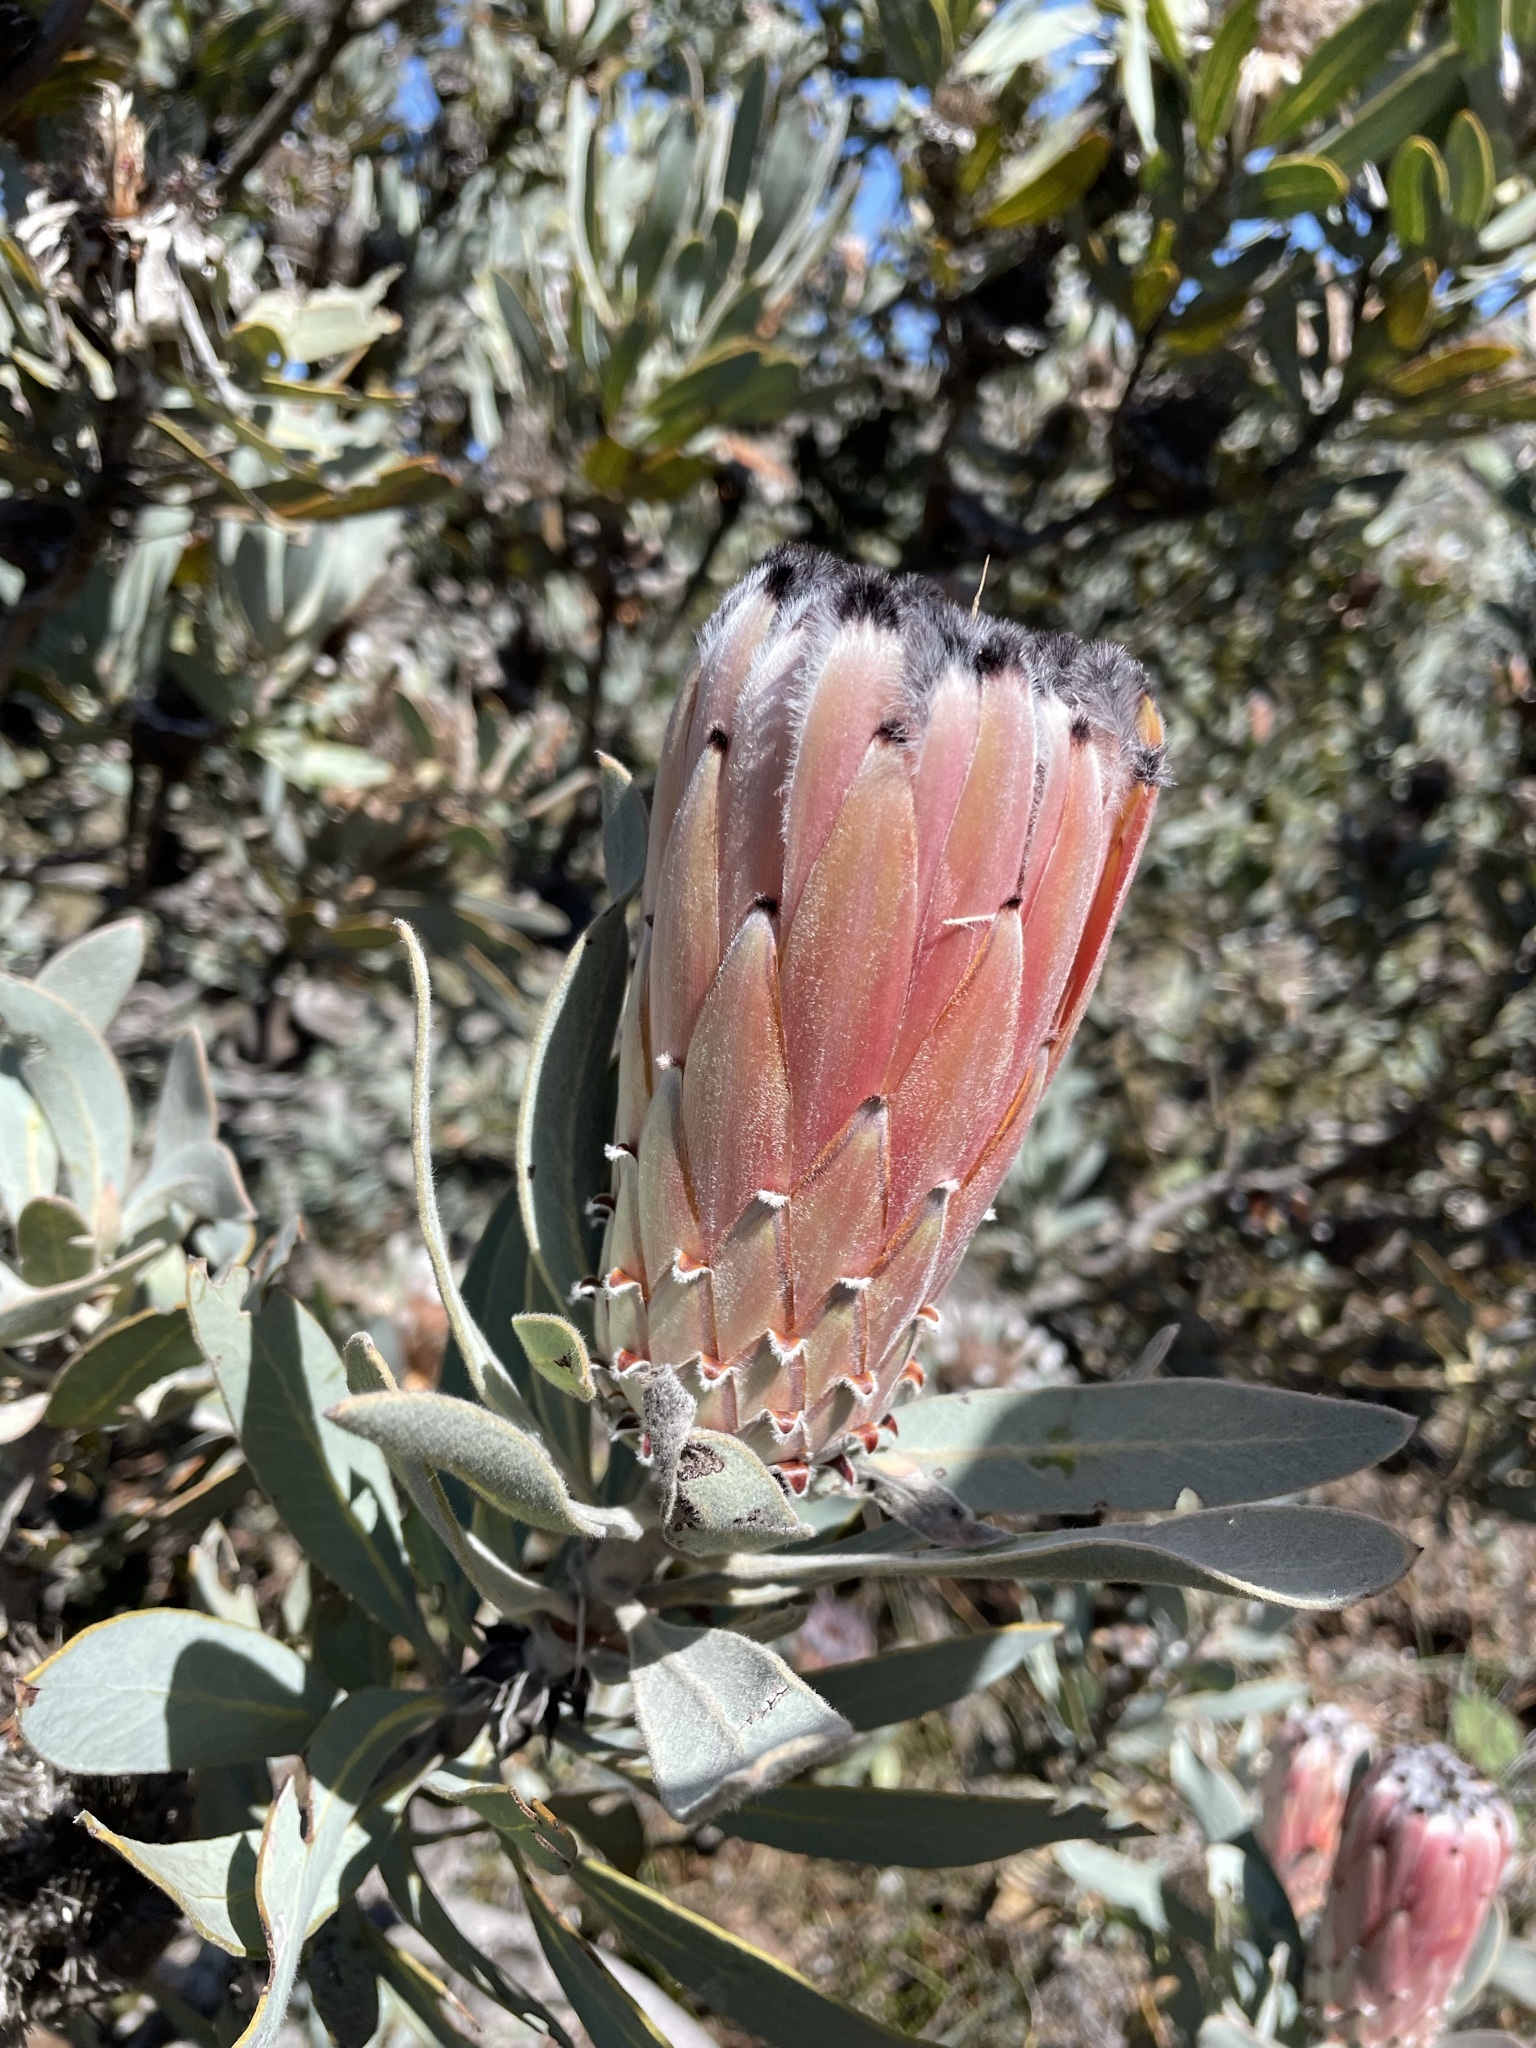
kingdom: Plantae
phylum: Tracheophyta
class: Magnoliopsida
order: Proteales
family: Proteaceae
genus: Protea
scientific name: Protea laurifolia
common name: Grey-leaf sugarbsh
